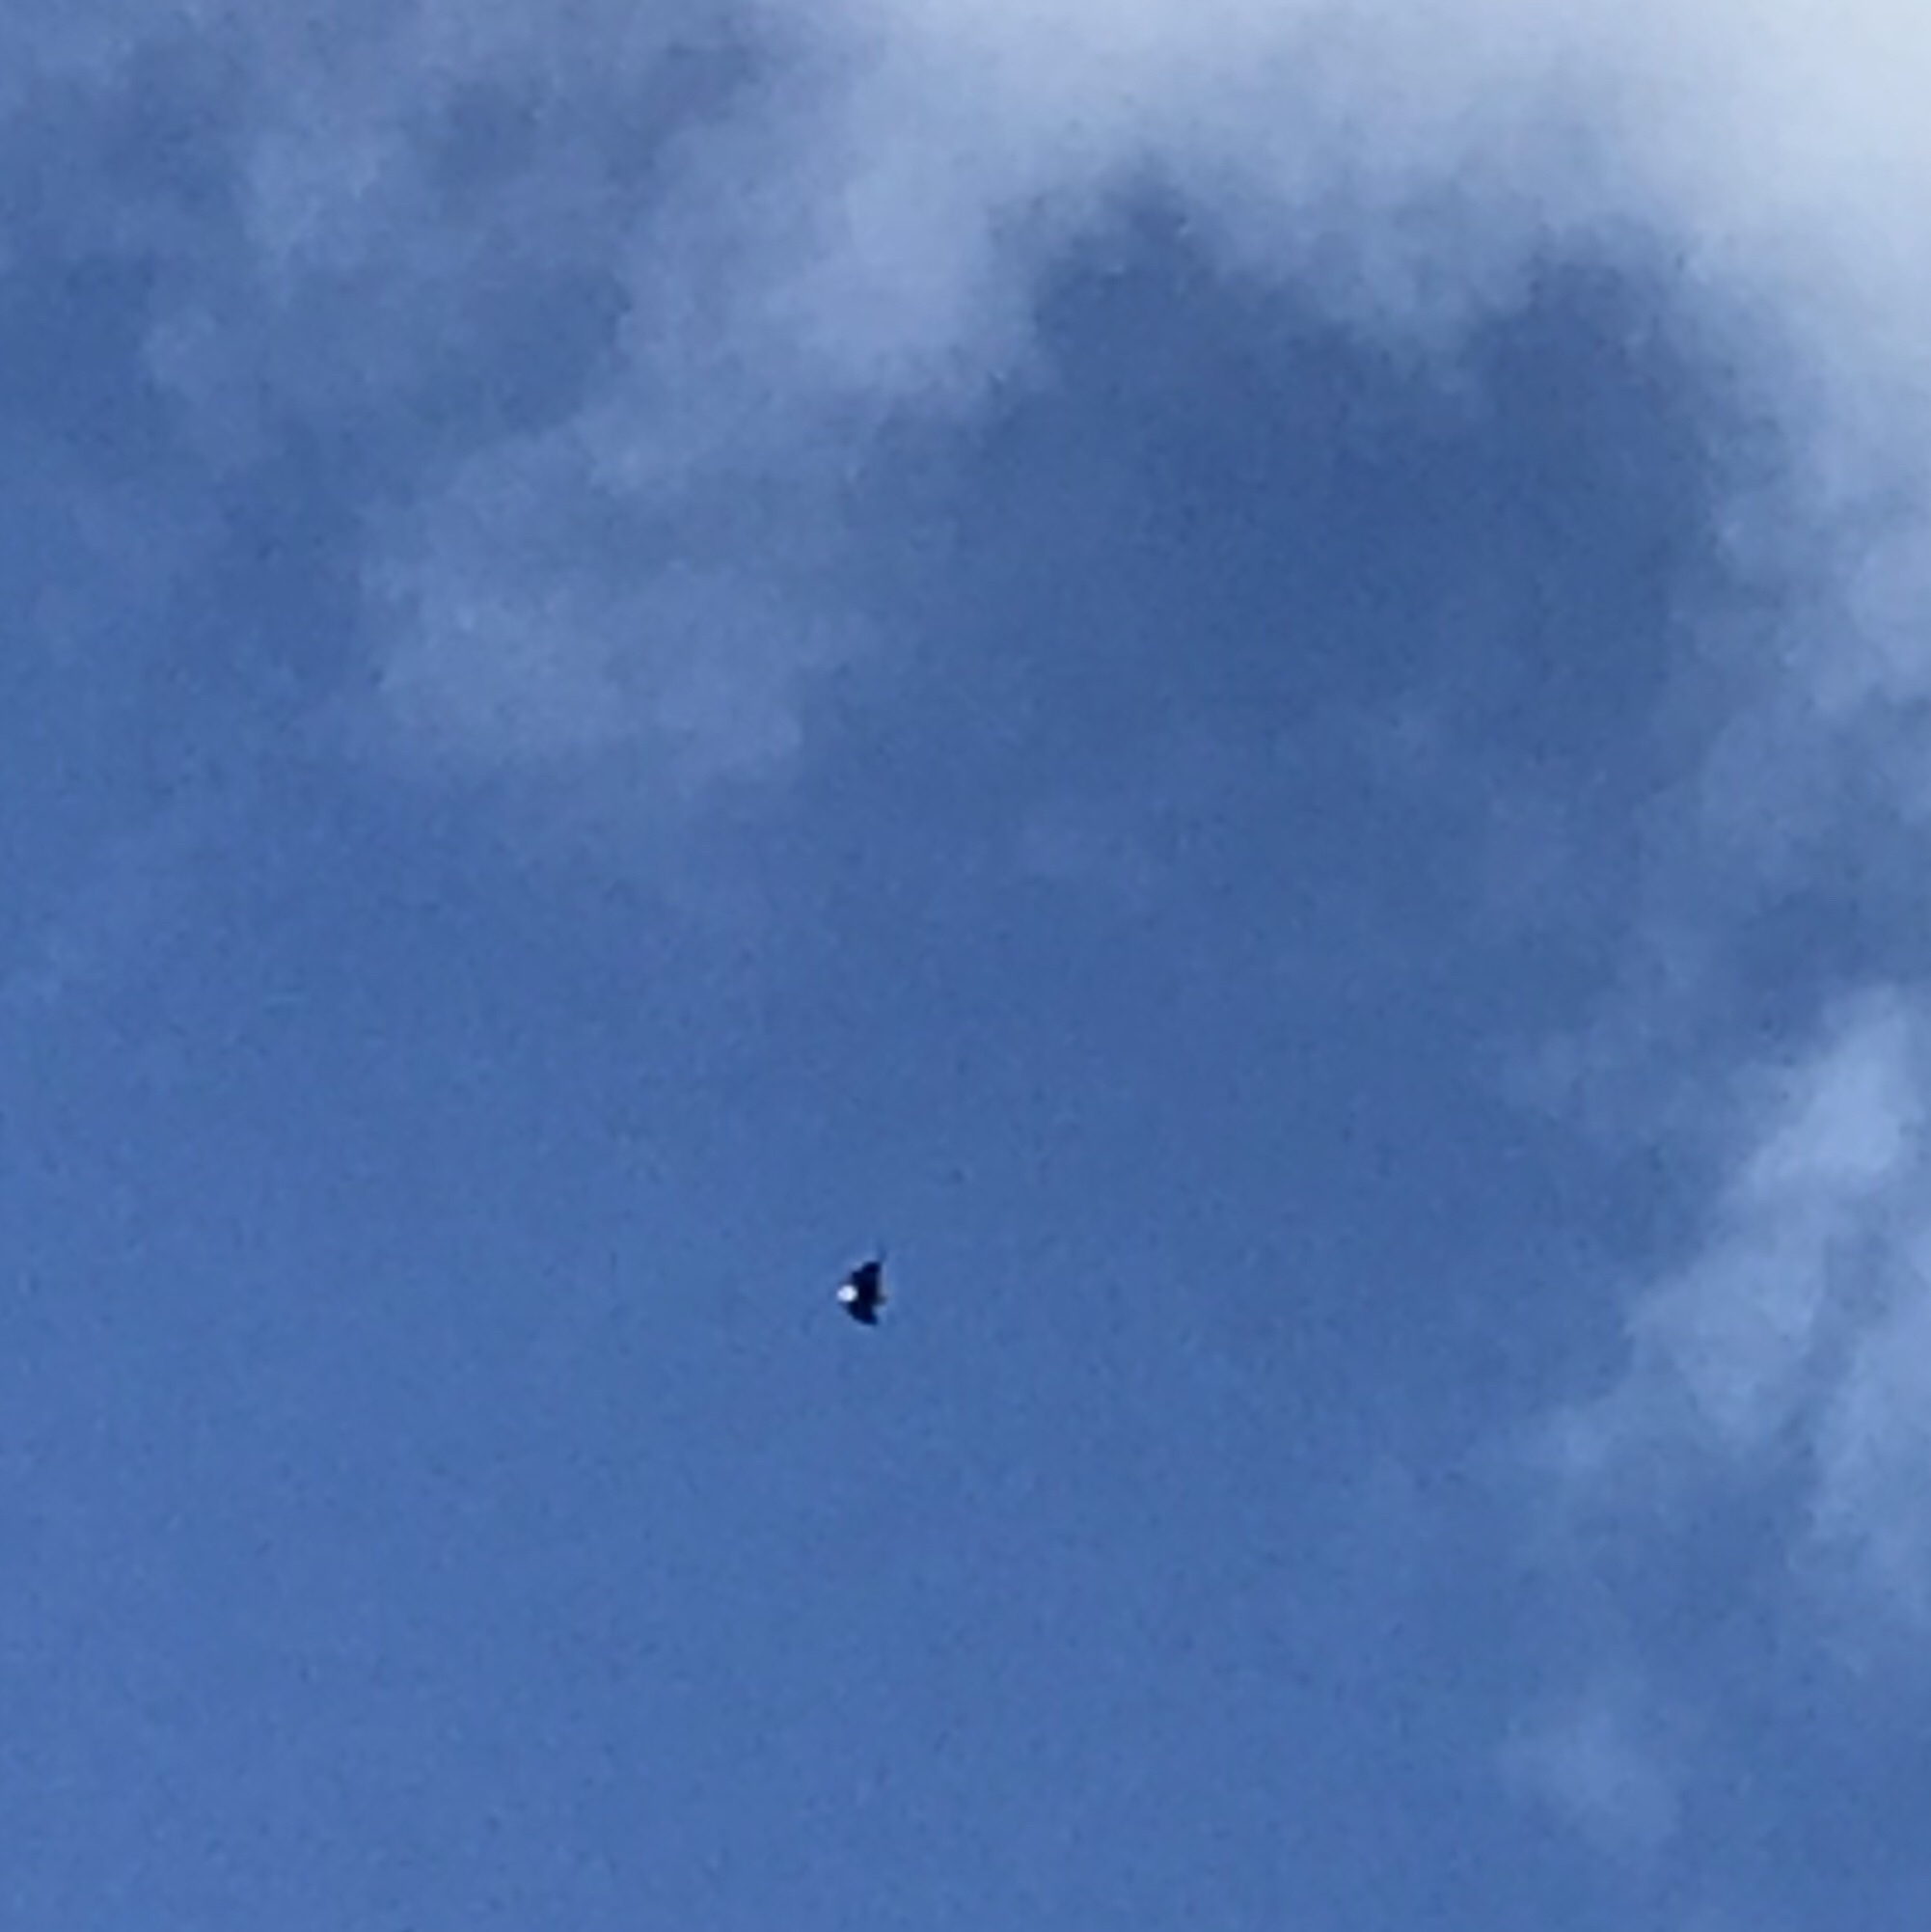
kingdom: Animalia
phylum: Chordata
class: Aves
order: Accipitriformes
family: Accipitridae
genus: Haliaeetus
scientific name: Haliaeetus leucocephalus
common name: Bald eagle
